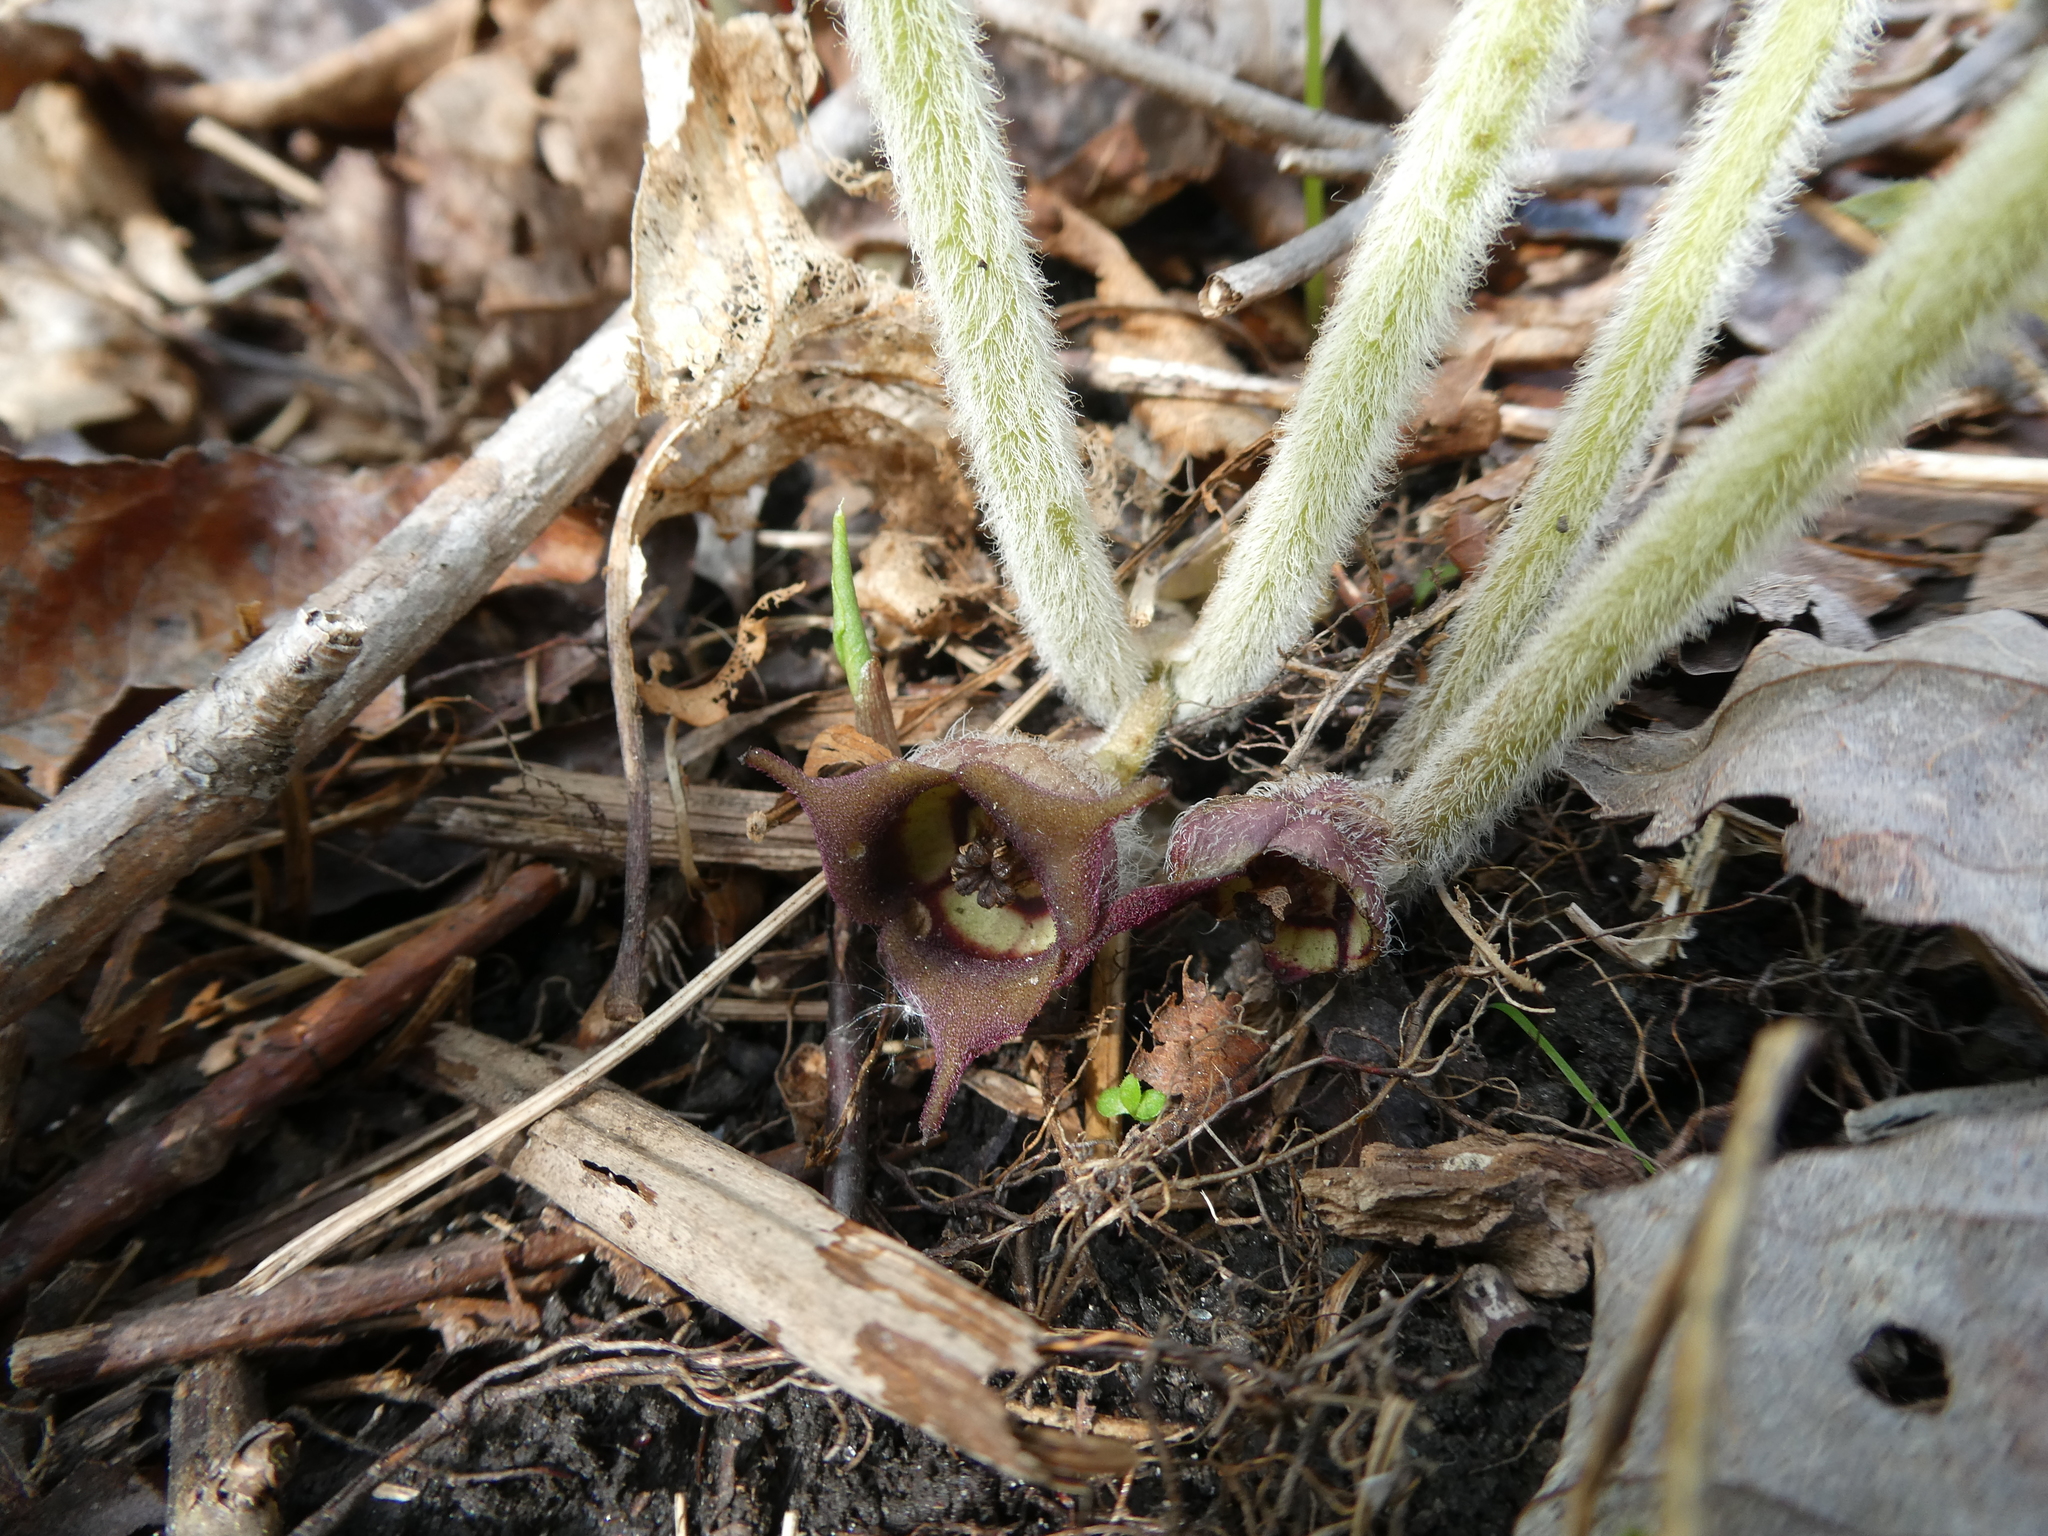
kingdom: Plantae
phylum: Tracheophyta
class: Magnoliopsida
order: Piperales
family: Aristolochiaceae
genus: Asarum
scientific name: Asarum canadense
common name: Wild ginger
